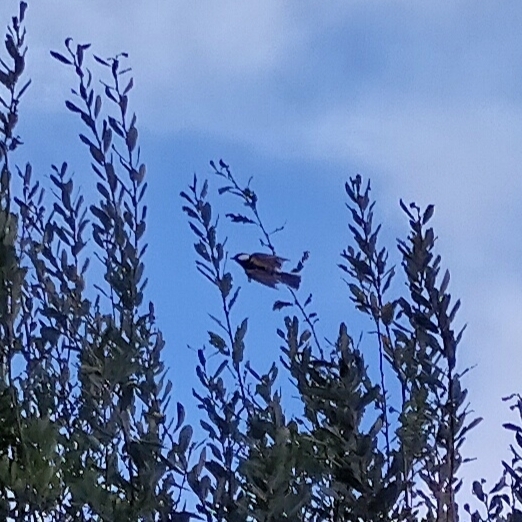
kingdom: Animalia
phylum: Chordata
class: Aves
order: Passeriformes
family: Paridae
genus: Parus
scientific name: Parus major
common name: Great tit
